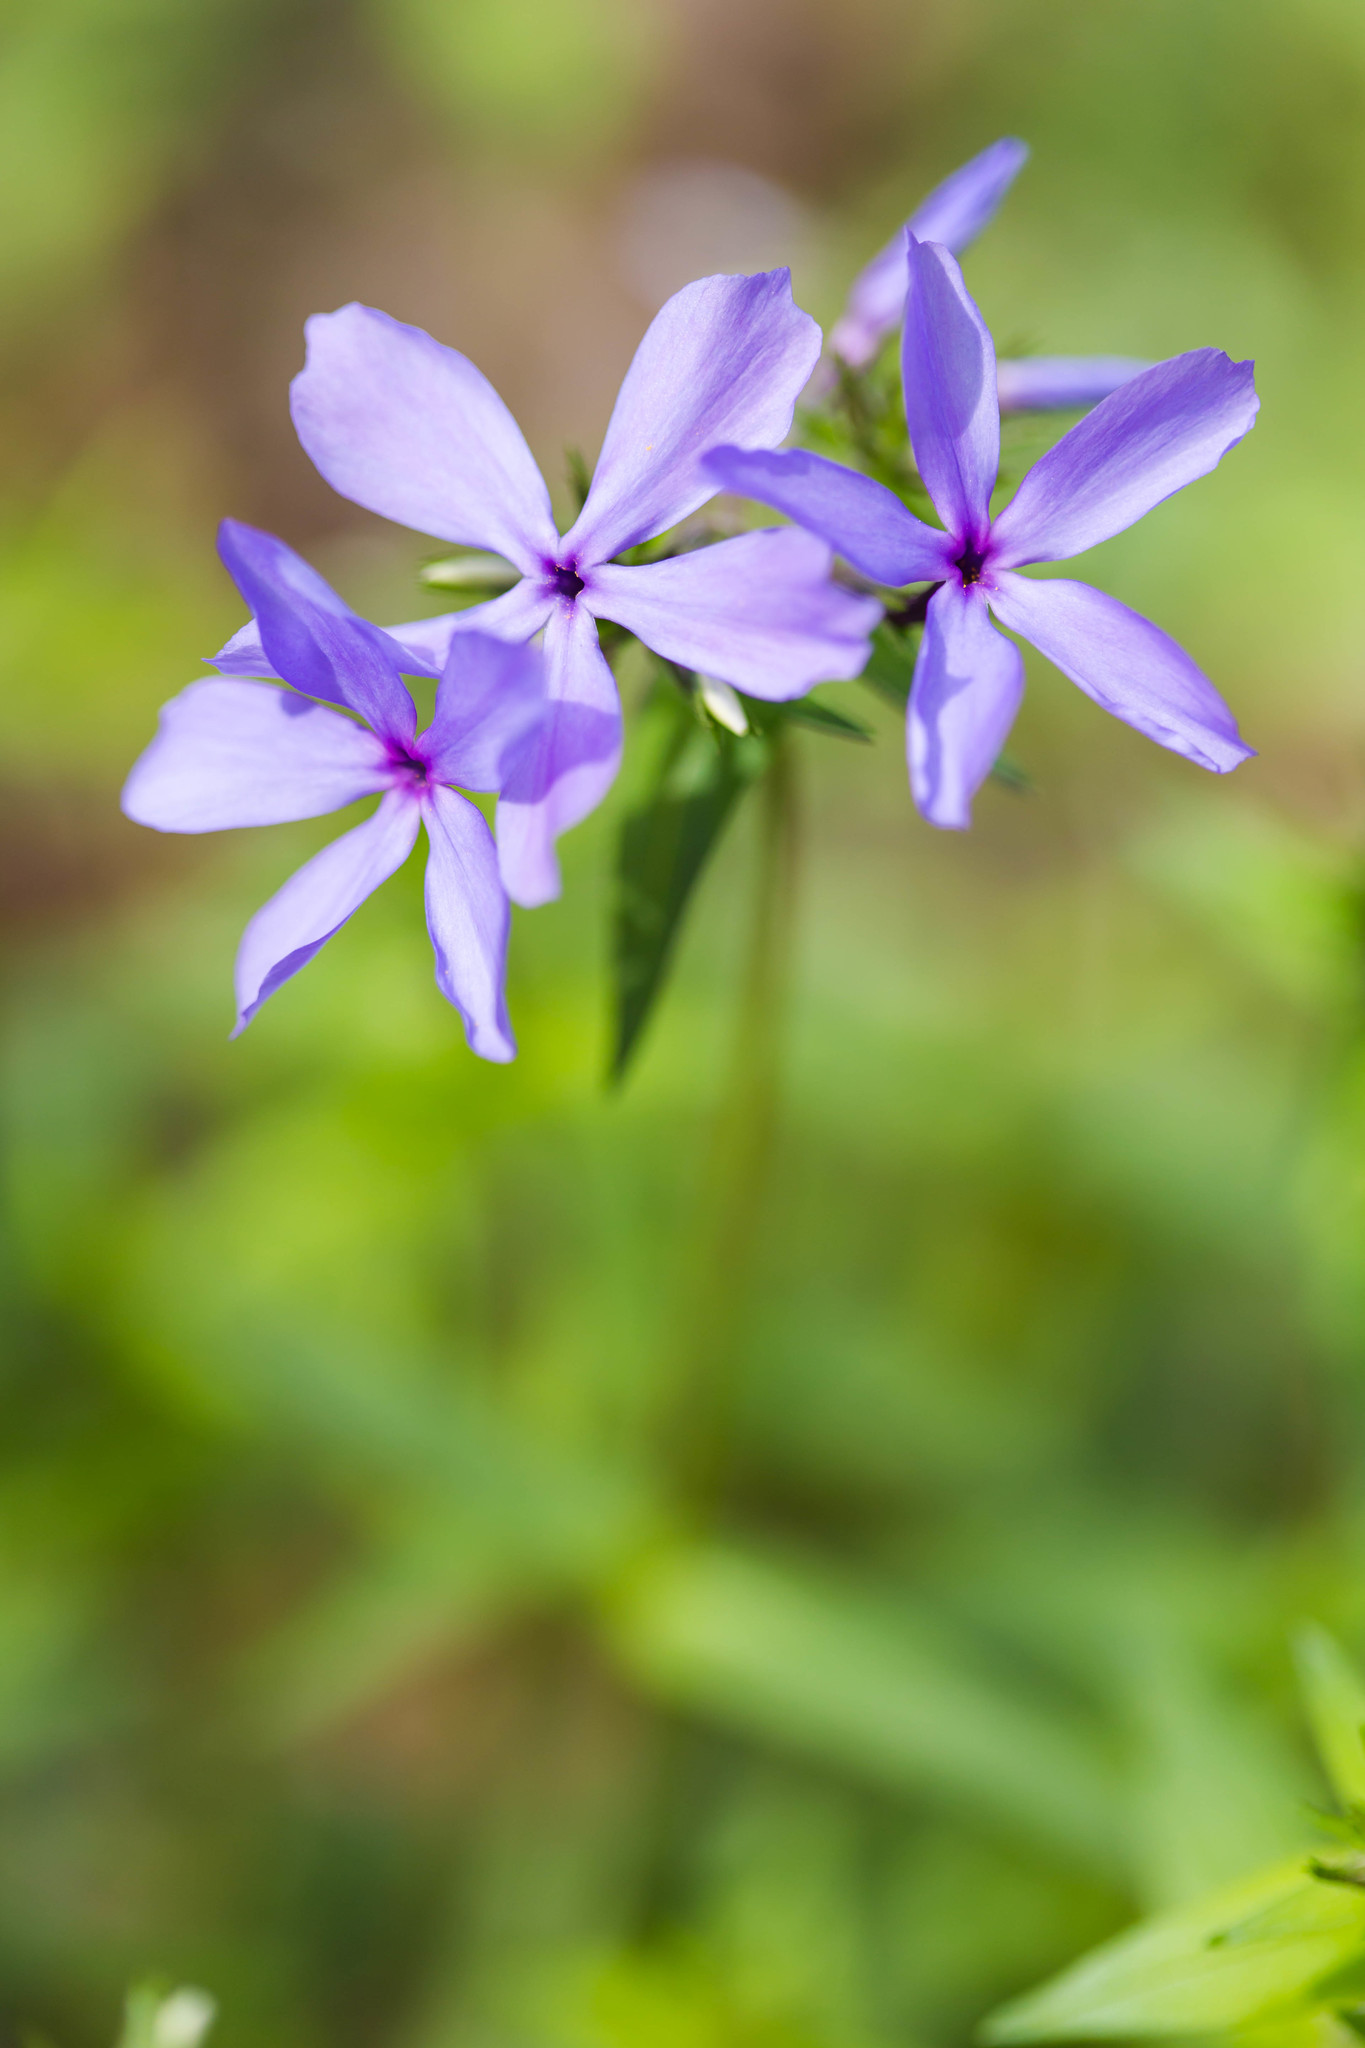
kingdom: Plantae
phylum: Tracheophyta
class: Magnoliopsida
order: Ericales
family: Polemoniaceae
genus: Phlox
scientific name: Phlox divaricata
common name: Blue phlox
